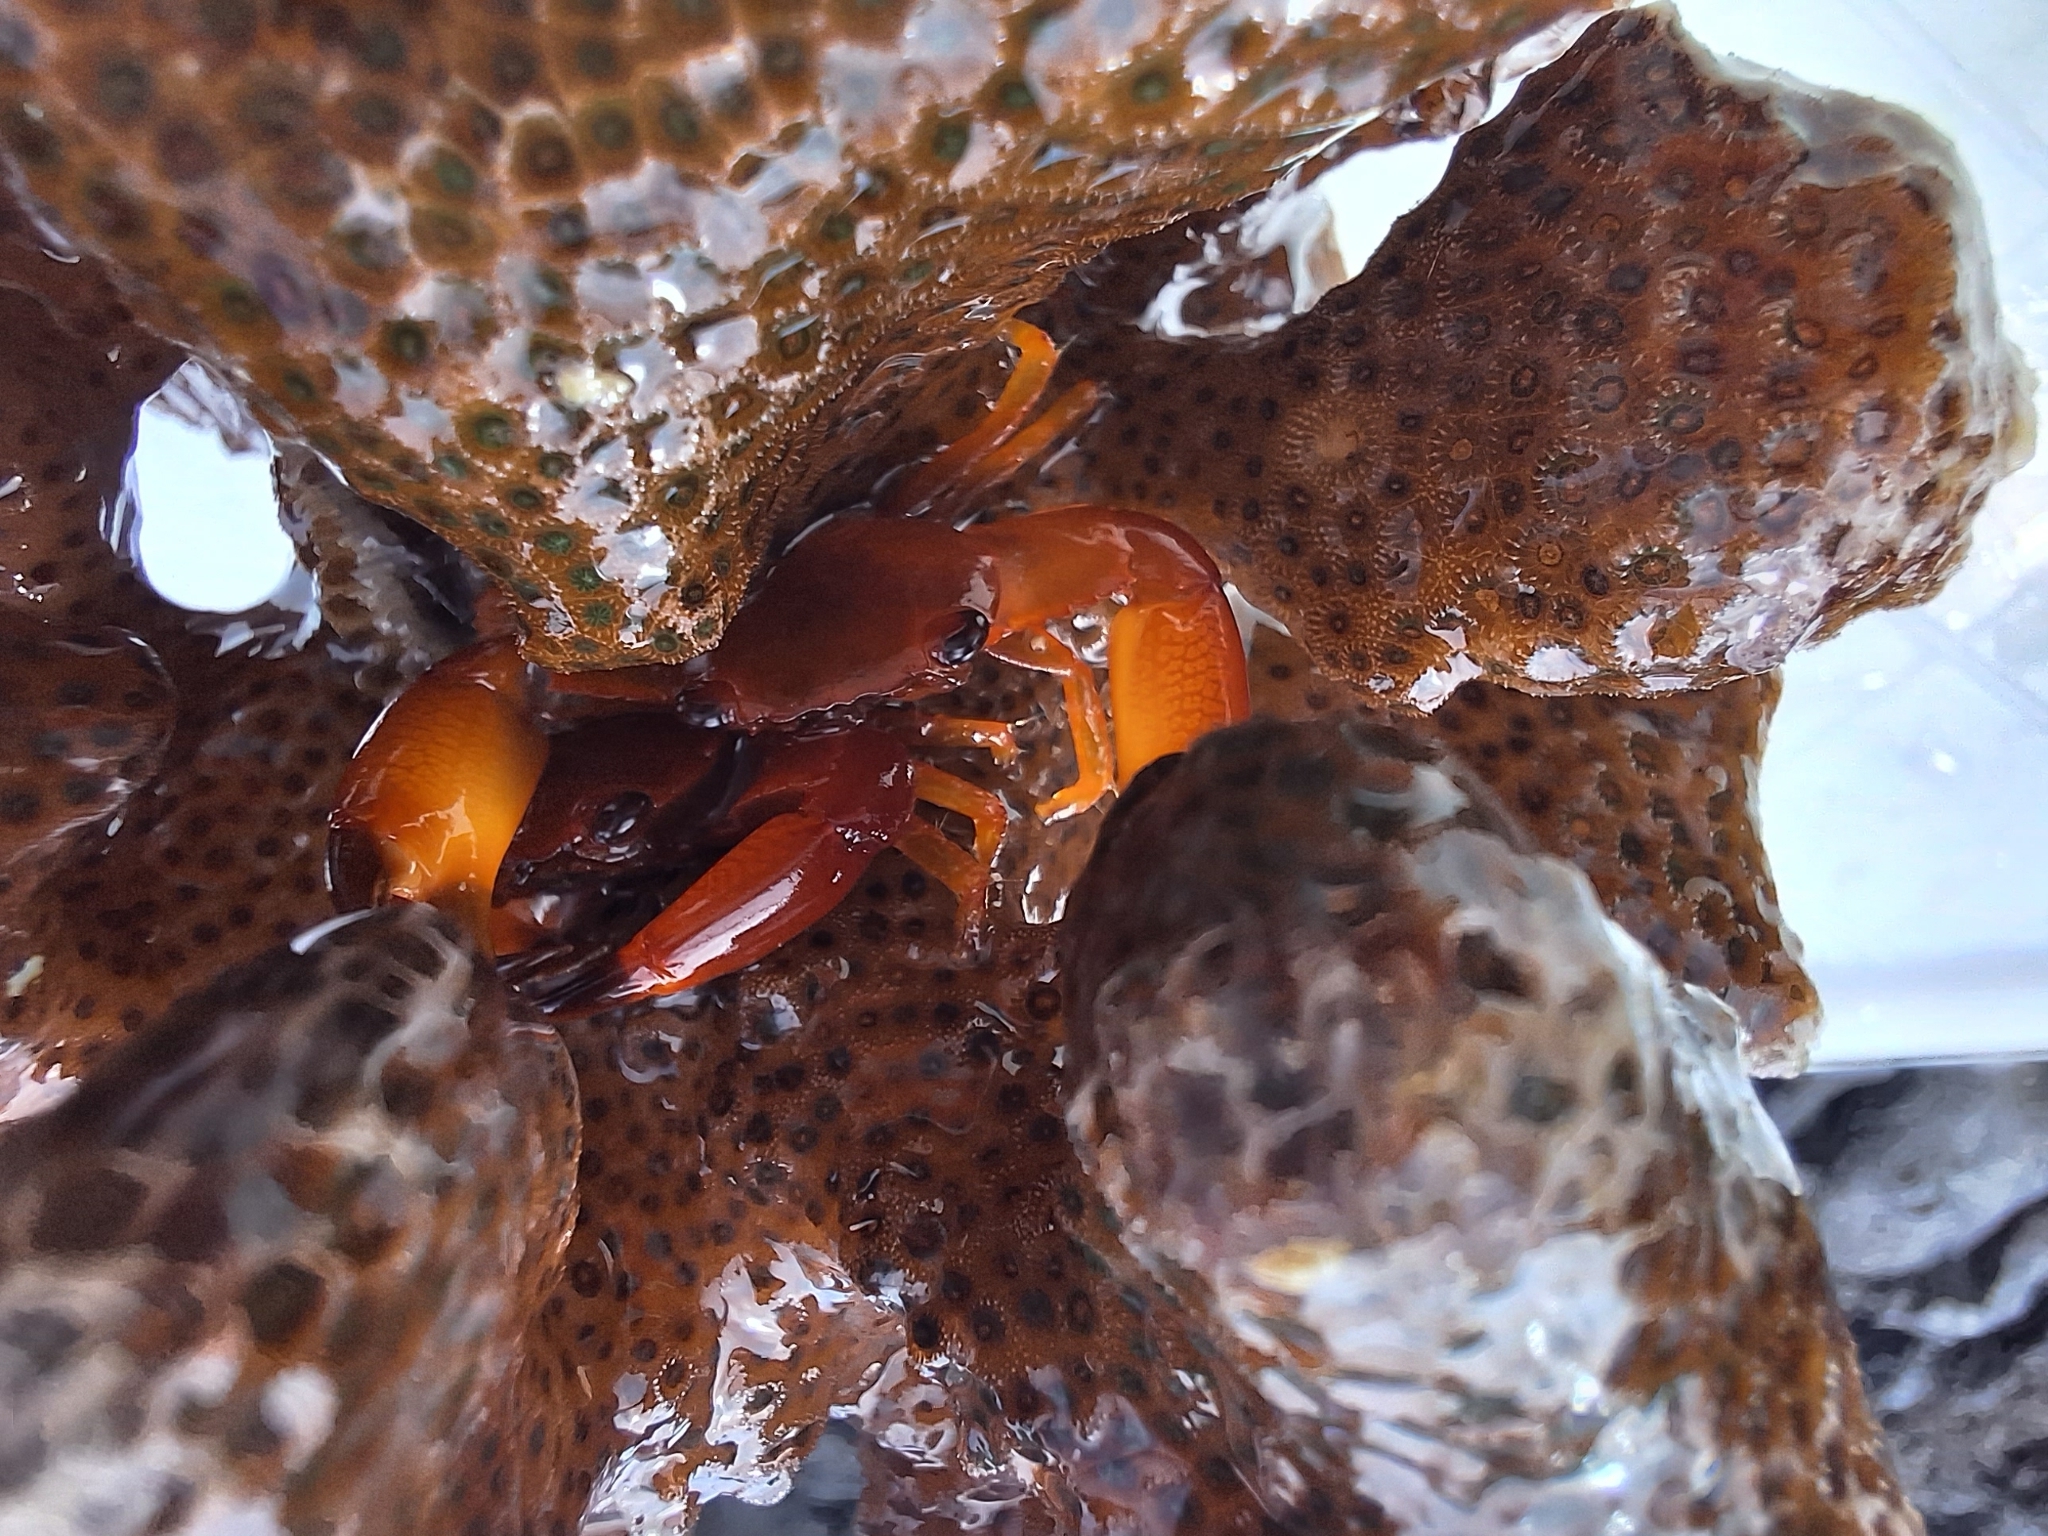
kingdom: Animalia
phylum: Arthropoda
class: Malacostraca
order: Decapoda
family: Trapeziidae
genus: Trapezia
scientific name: Trapezia bidentata
